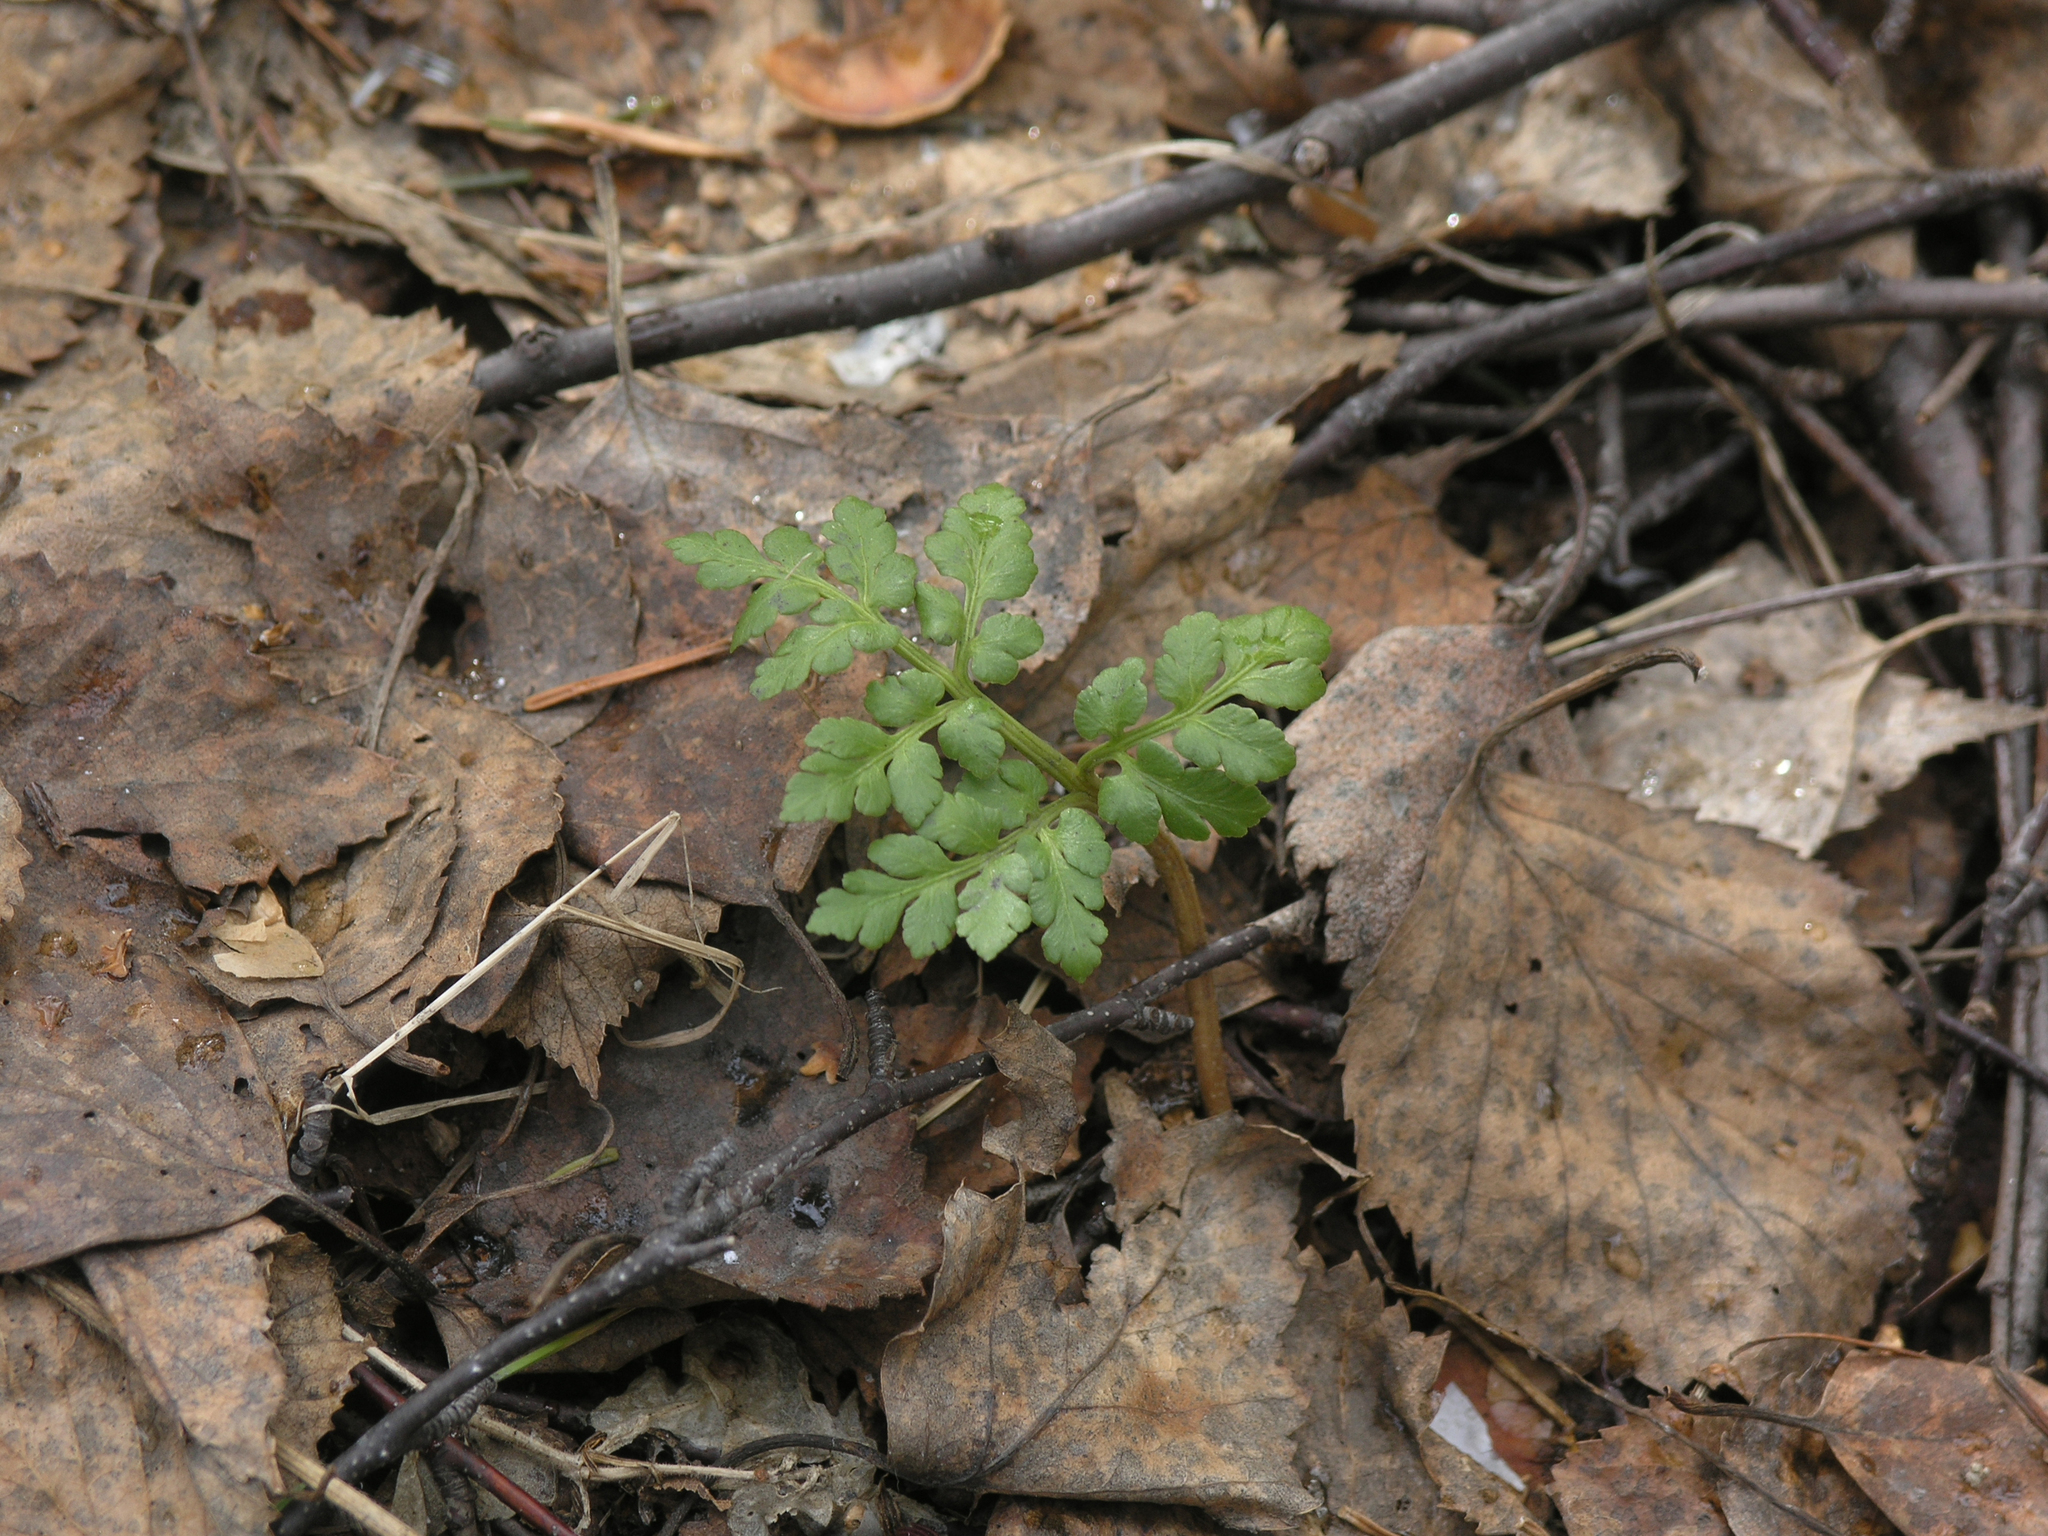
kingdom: Plantae
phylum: Tracheophyta
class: Polypodiopsida
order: Ophioglossales
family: Ophioglossaceae
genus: Sceptridium
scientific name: Sceptridium multifidum
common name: Leathery grape fern
